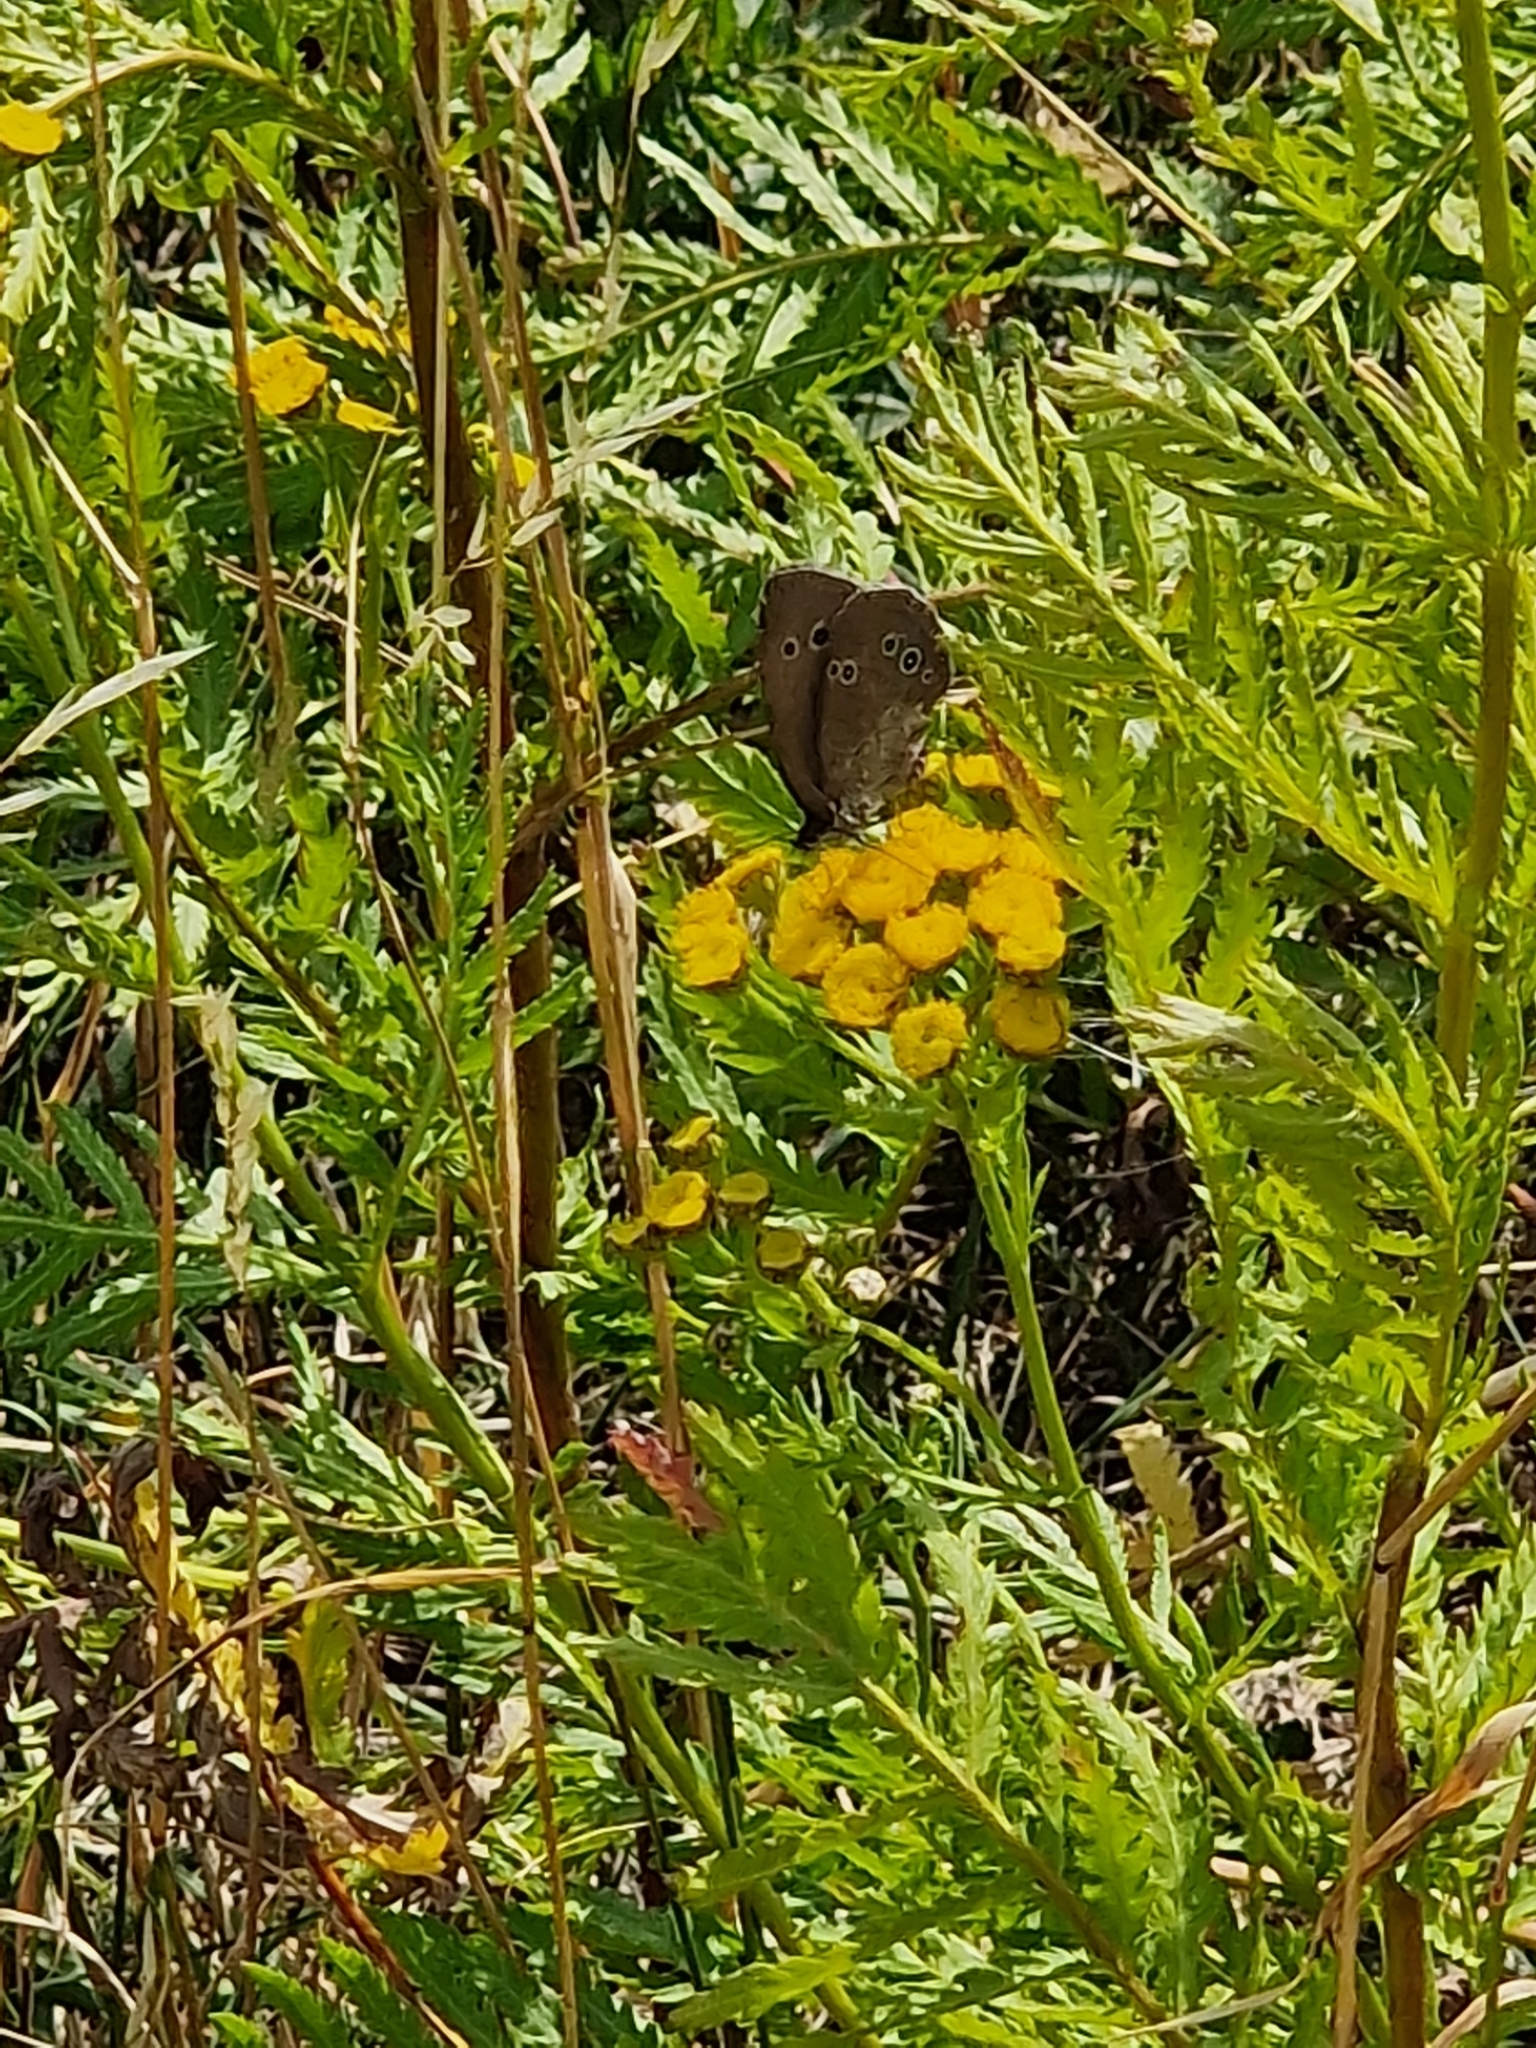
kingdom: Animalia
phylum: Arthropoda
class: Insecta
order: Lepidoptera
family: Nymphalidae
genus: Aphantopus
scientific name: Aphantopus hyperantus
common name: Ringlet
